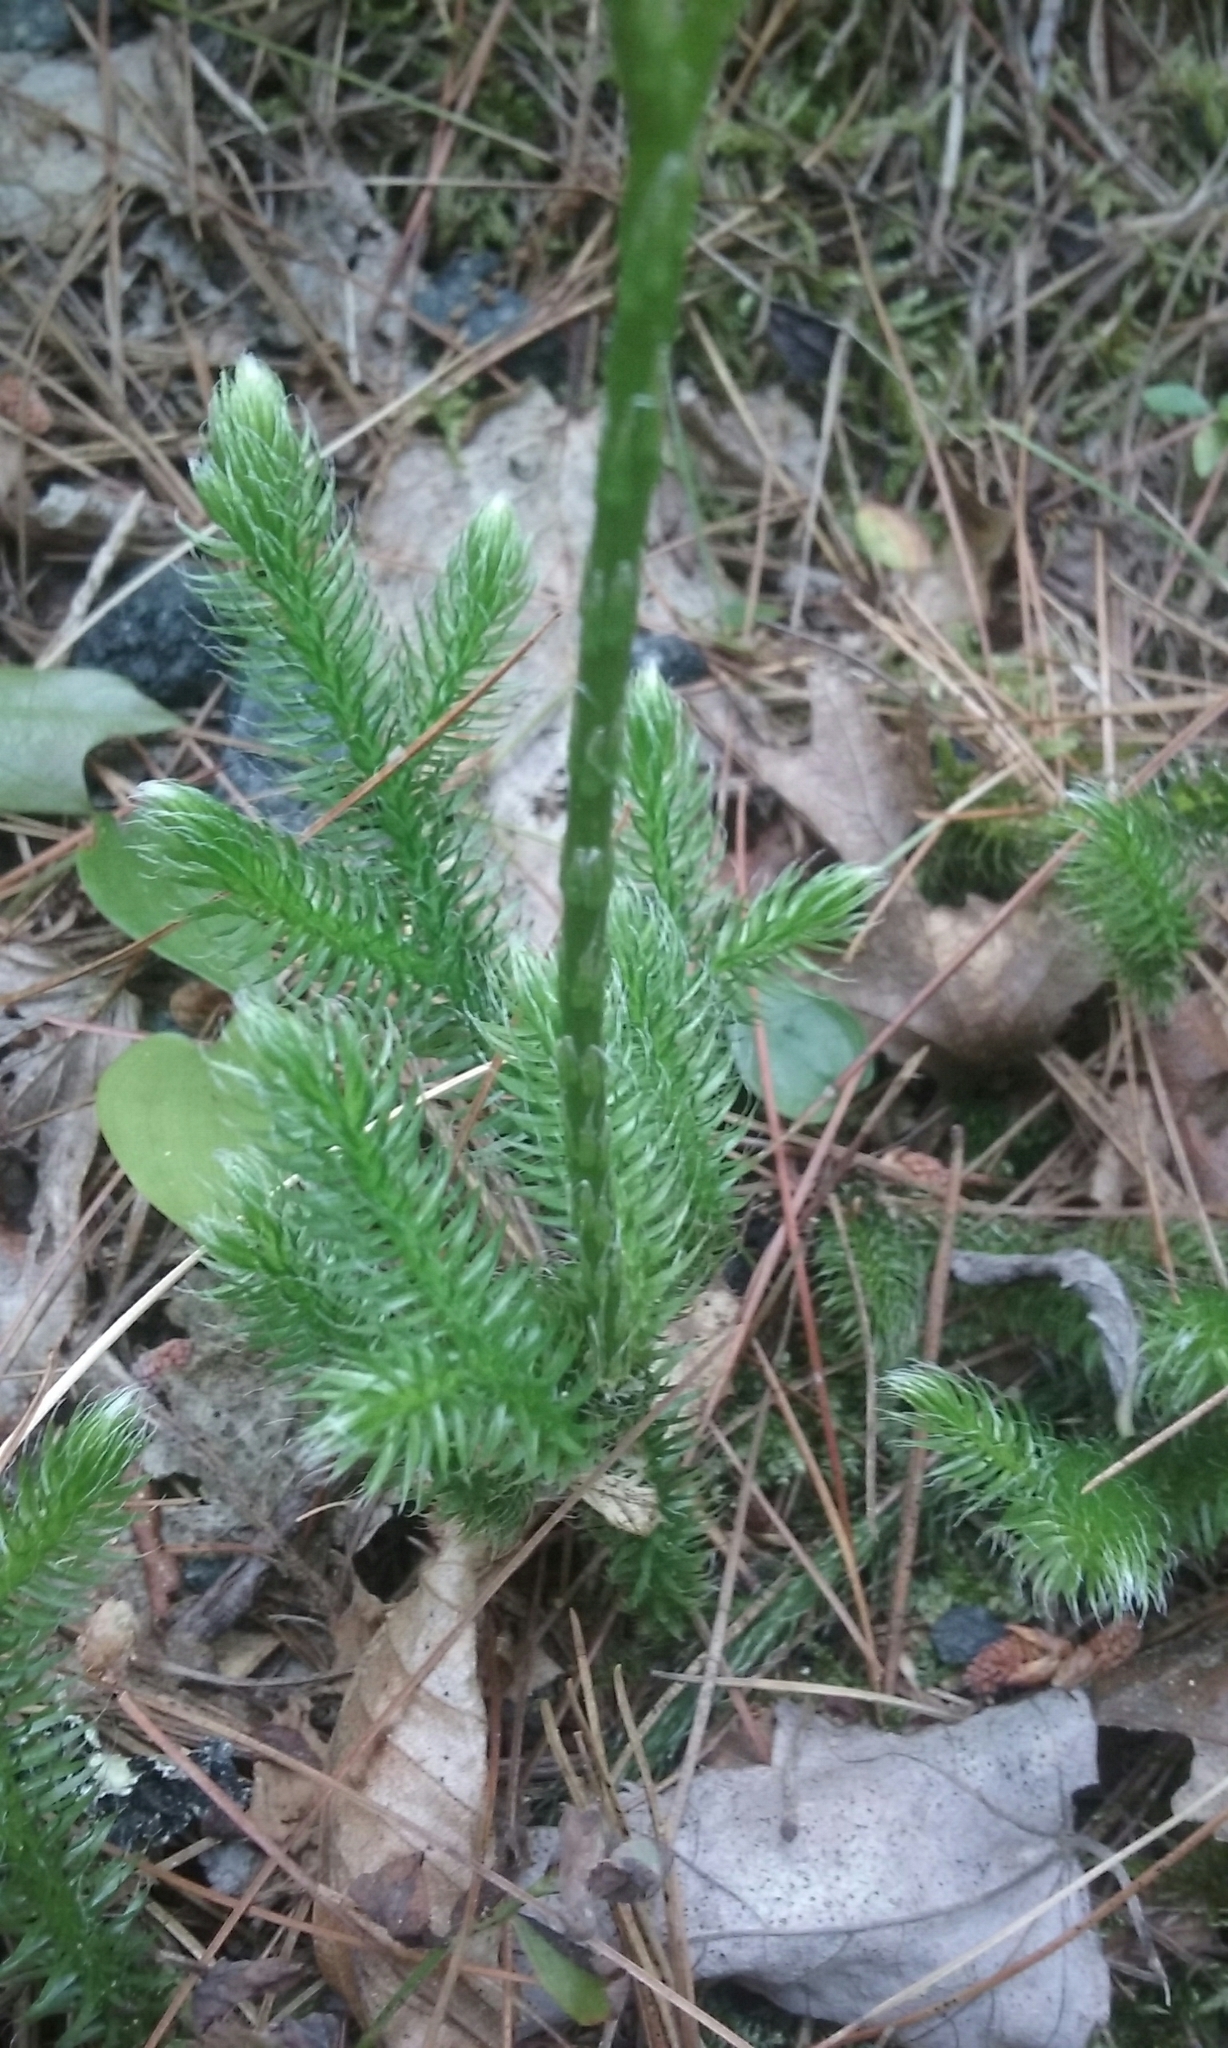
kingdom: Plantae
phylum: Tracheophyta
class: Lycopodiopsida
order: Lycopodiales
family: Lycopodiaceae
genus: Lycopodium
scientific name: Lycopodium clavatum
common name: Stag's-horn clubmoss
